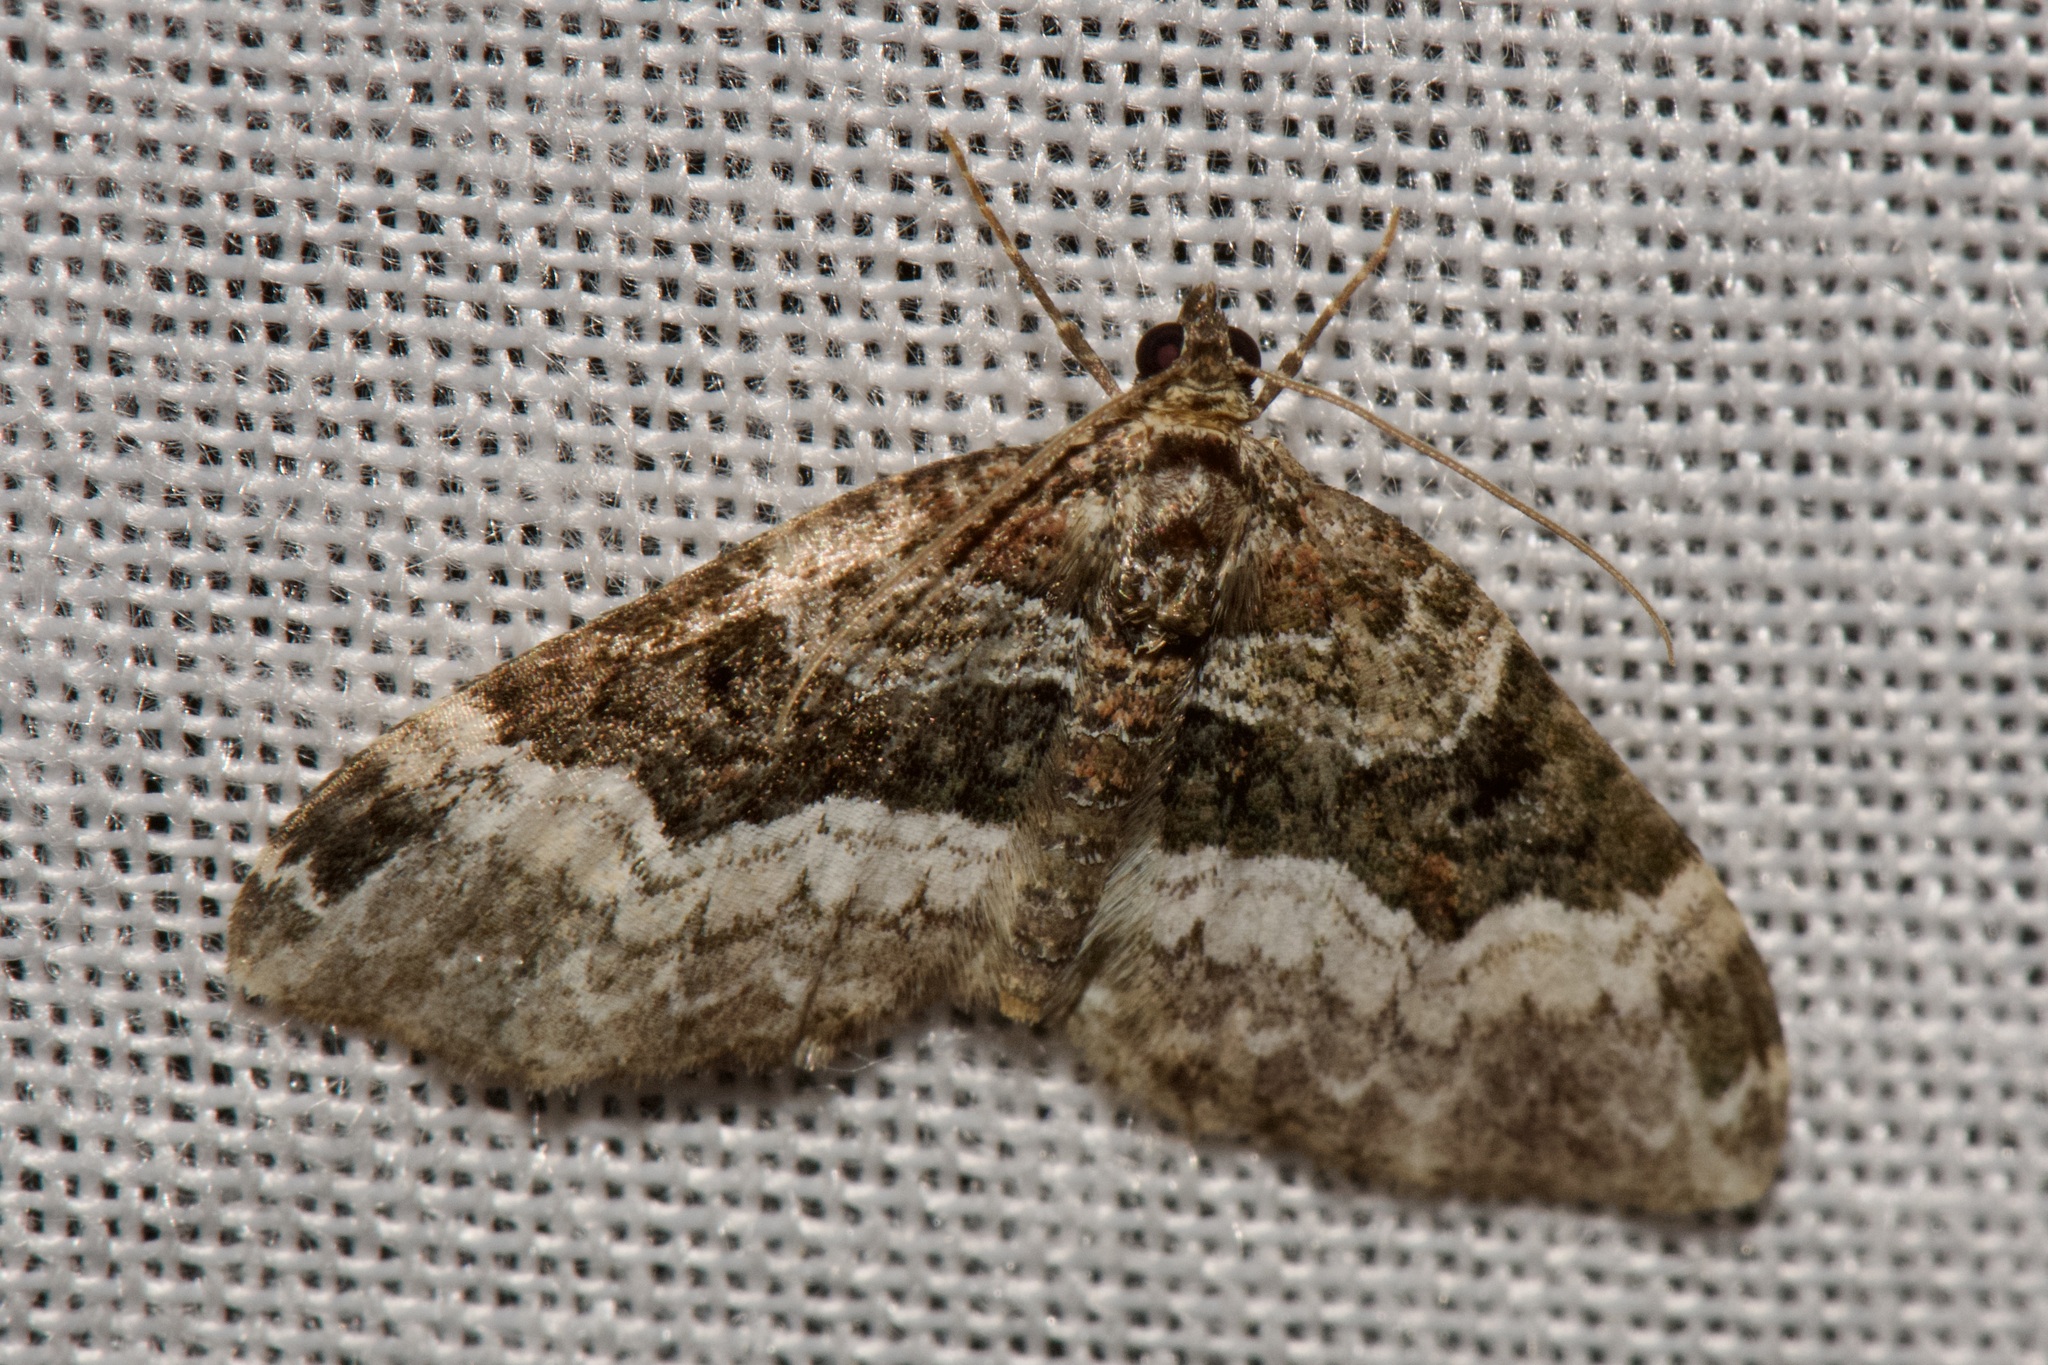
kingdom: Animalia
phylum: Arthropoda
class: Insecta
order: Lepidoptera
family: Geometridae
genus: Euphyia
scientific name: Euphyia intermediata
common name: Sharp-angled carpet
